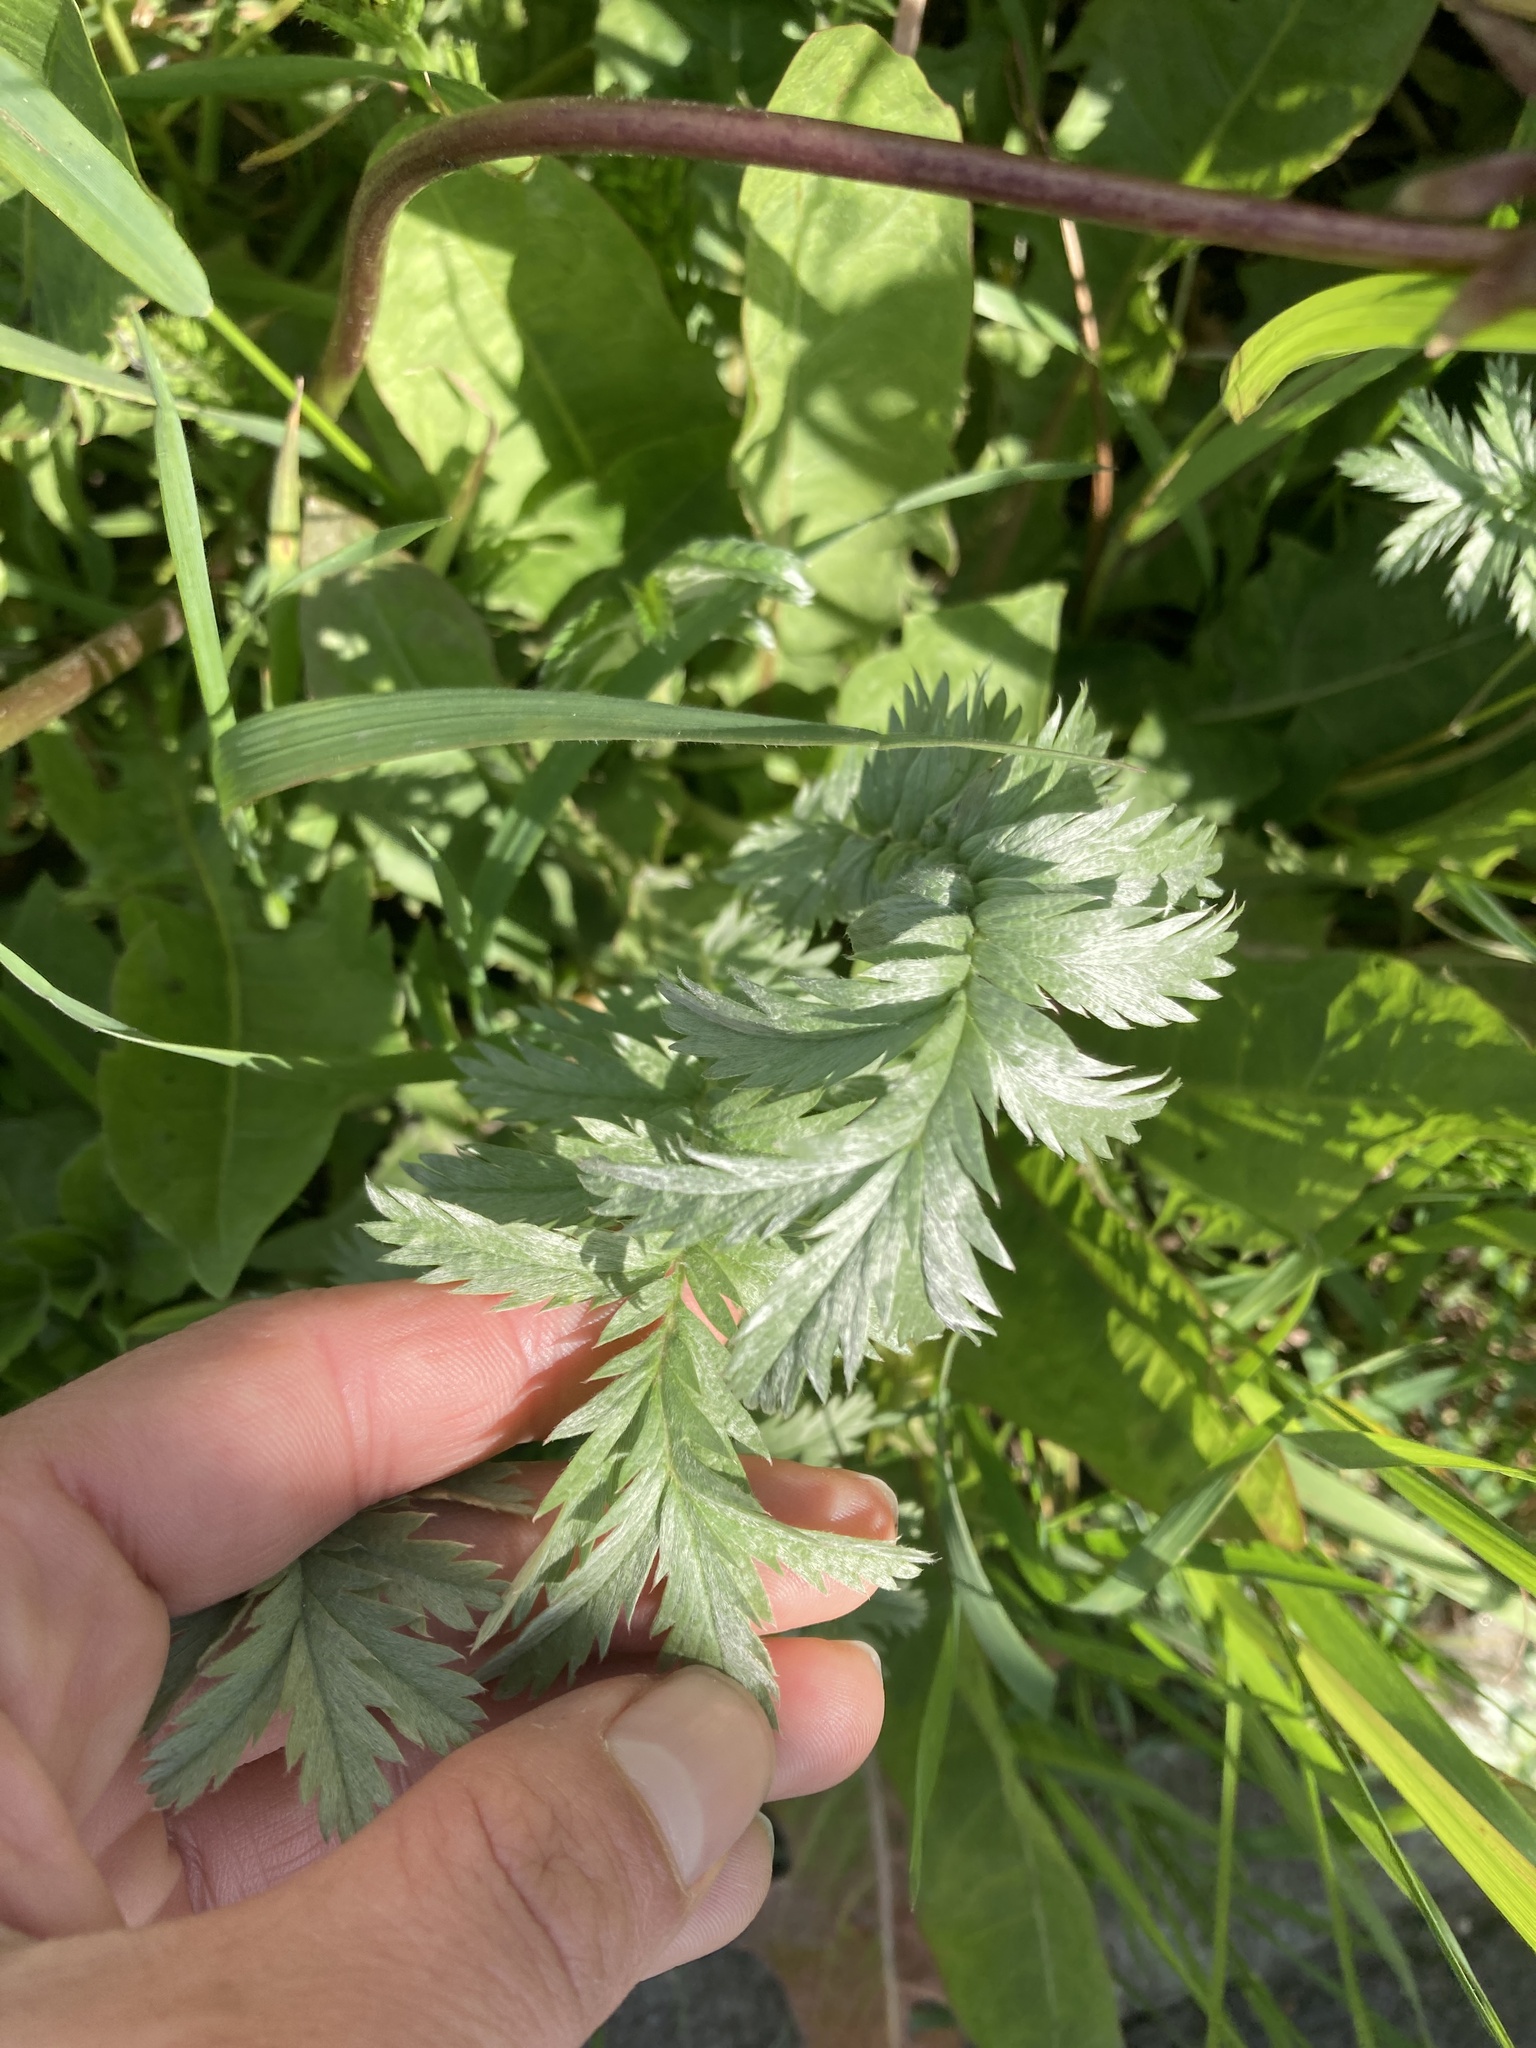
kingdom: Plantae
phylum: Tracheophyta
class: Magnoliopsida
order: Rosales
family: Rosaceae
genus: Argentina
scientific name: Argentina anserina
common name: Common silverweed
